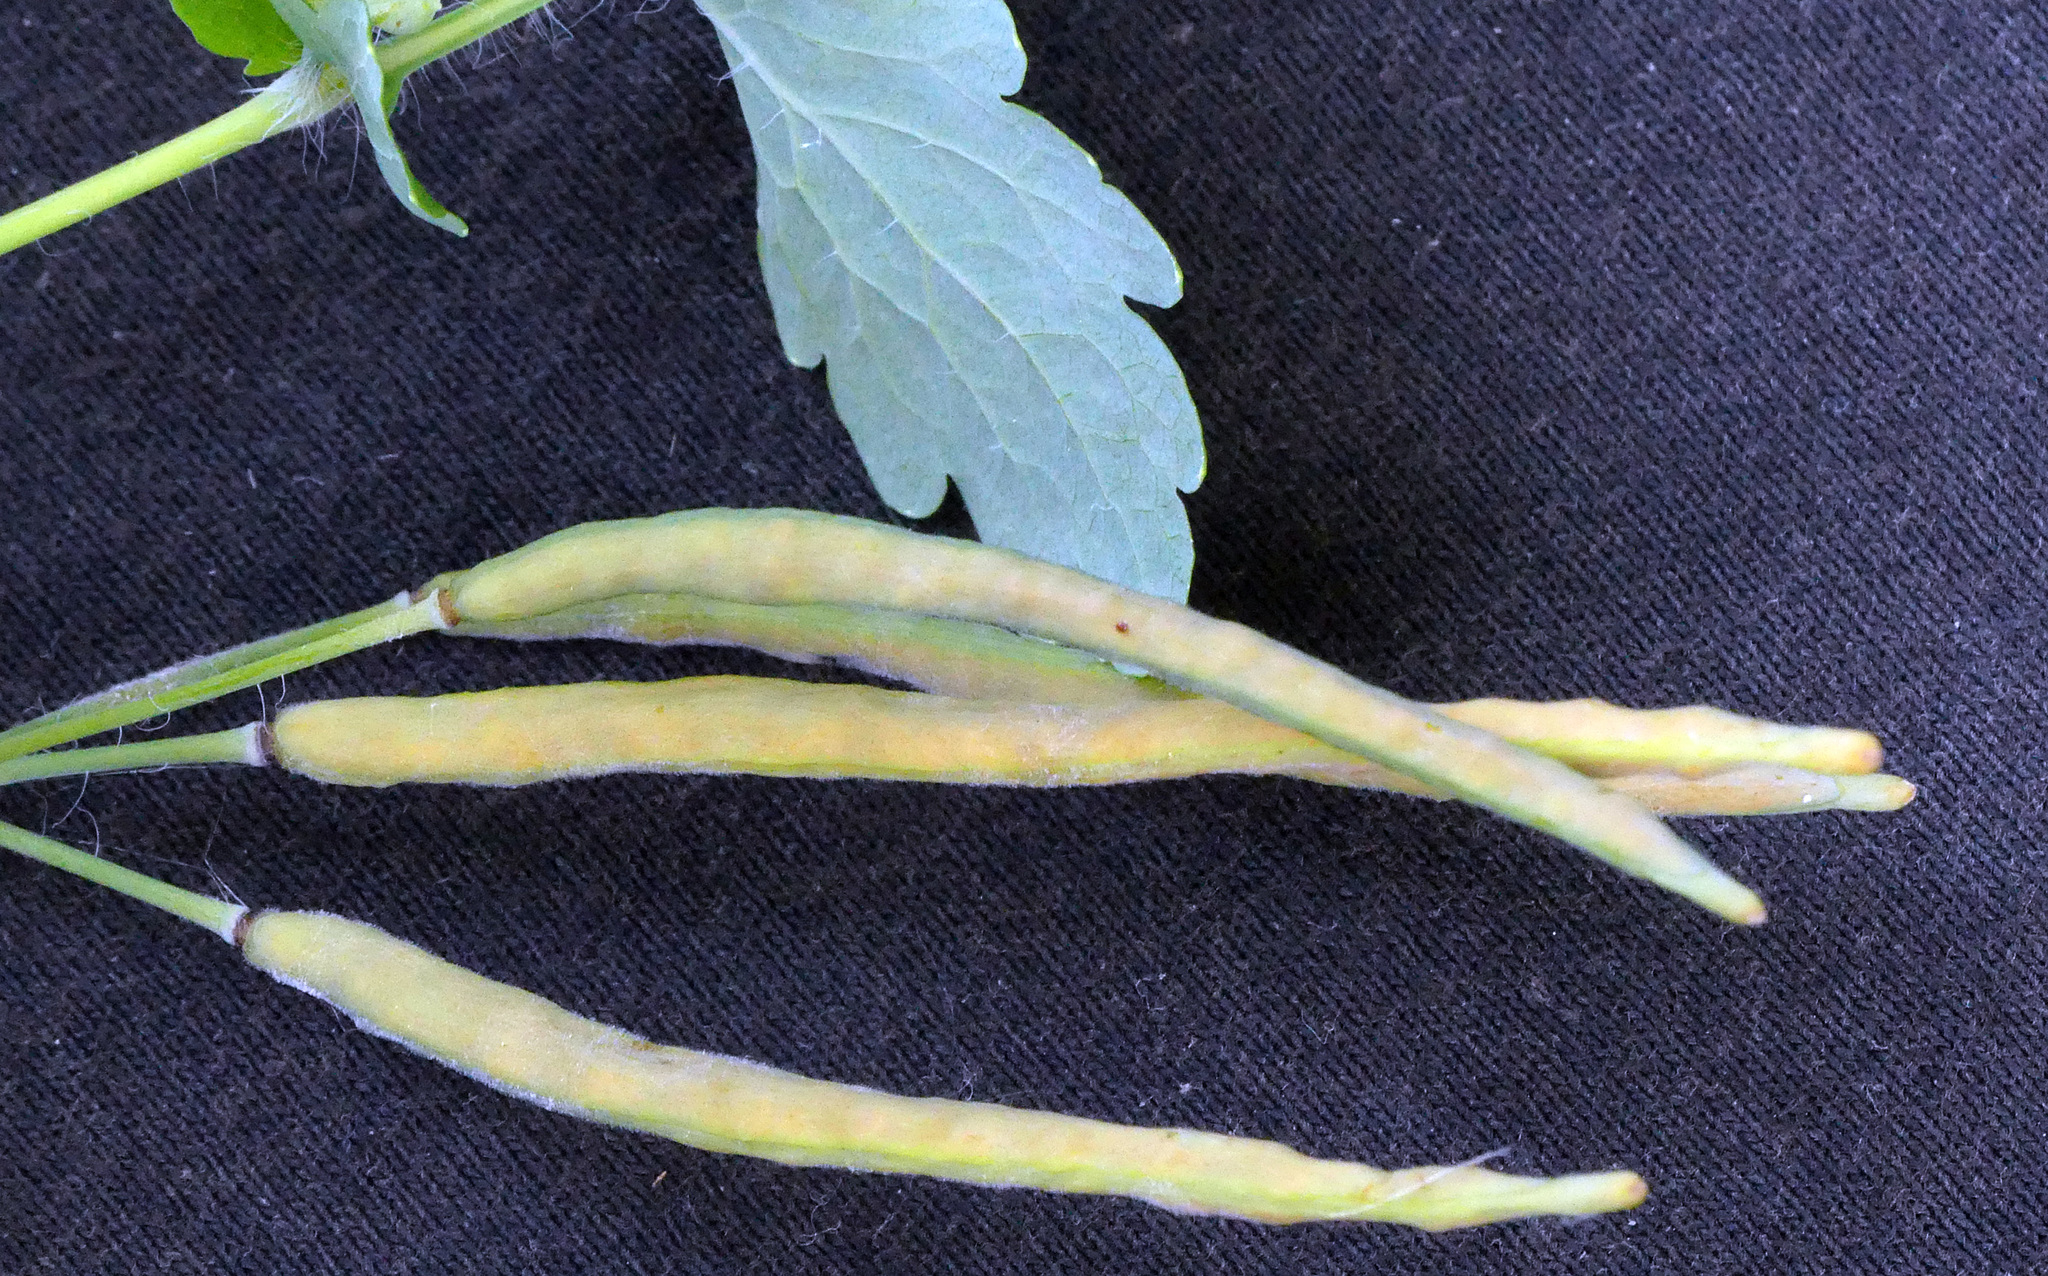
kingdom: Plantae
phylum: Tracheophyta
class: Magnoliopsida
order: Ranunculales
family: Papaveraceae
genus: Chelidonium
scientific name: Chelidonium majus
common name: Greater celandine
